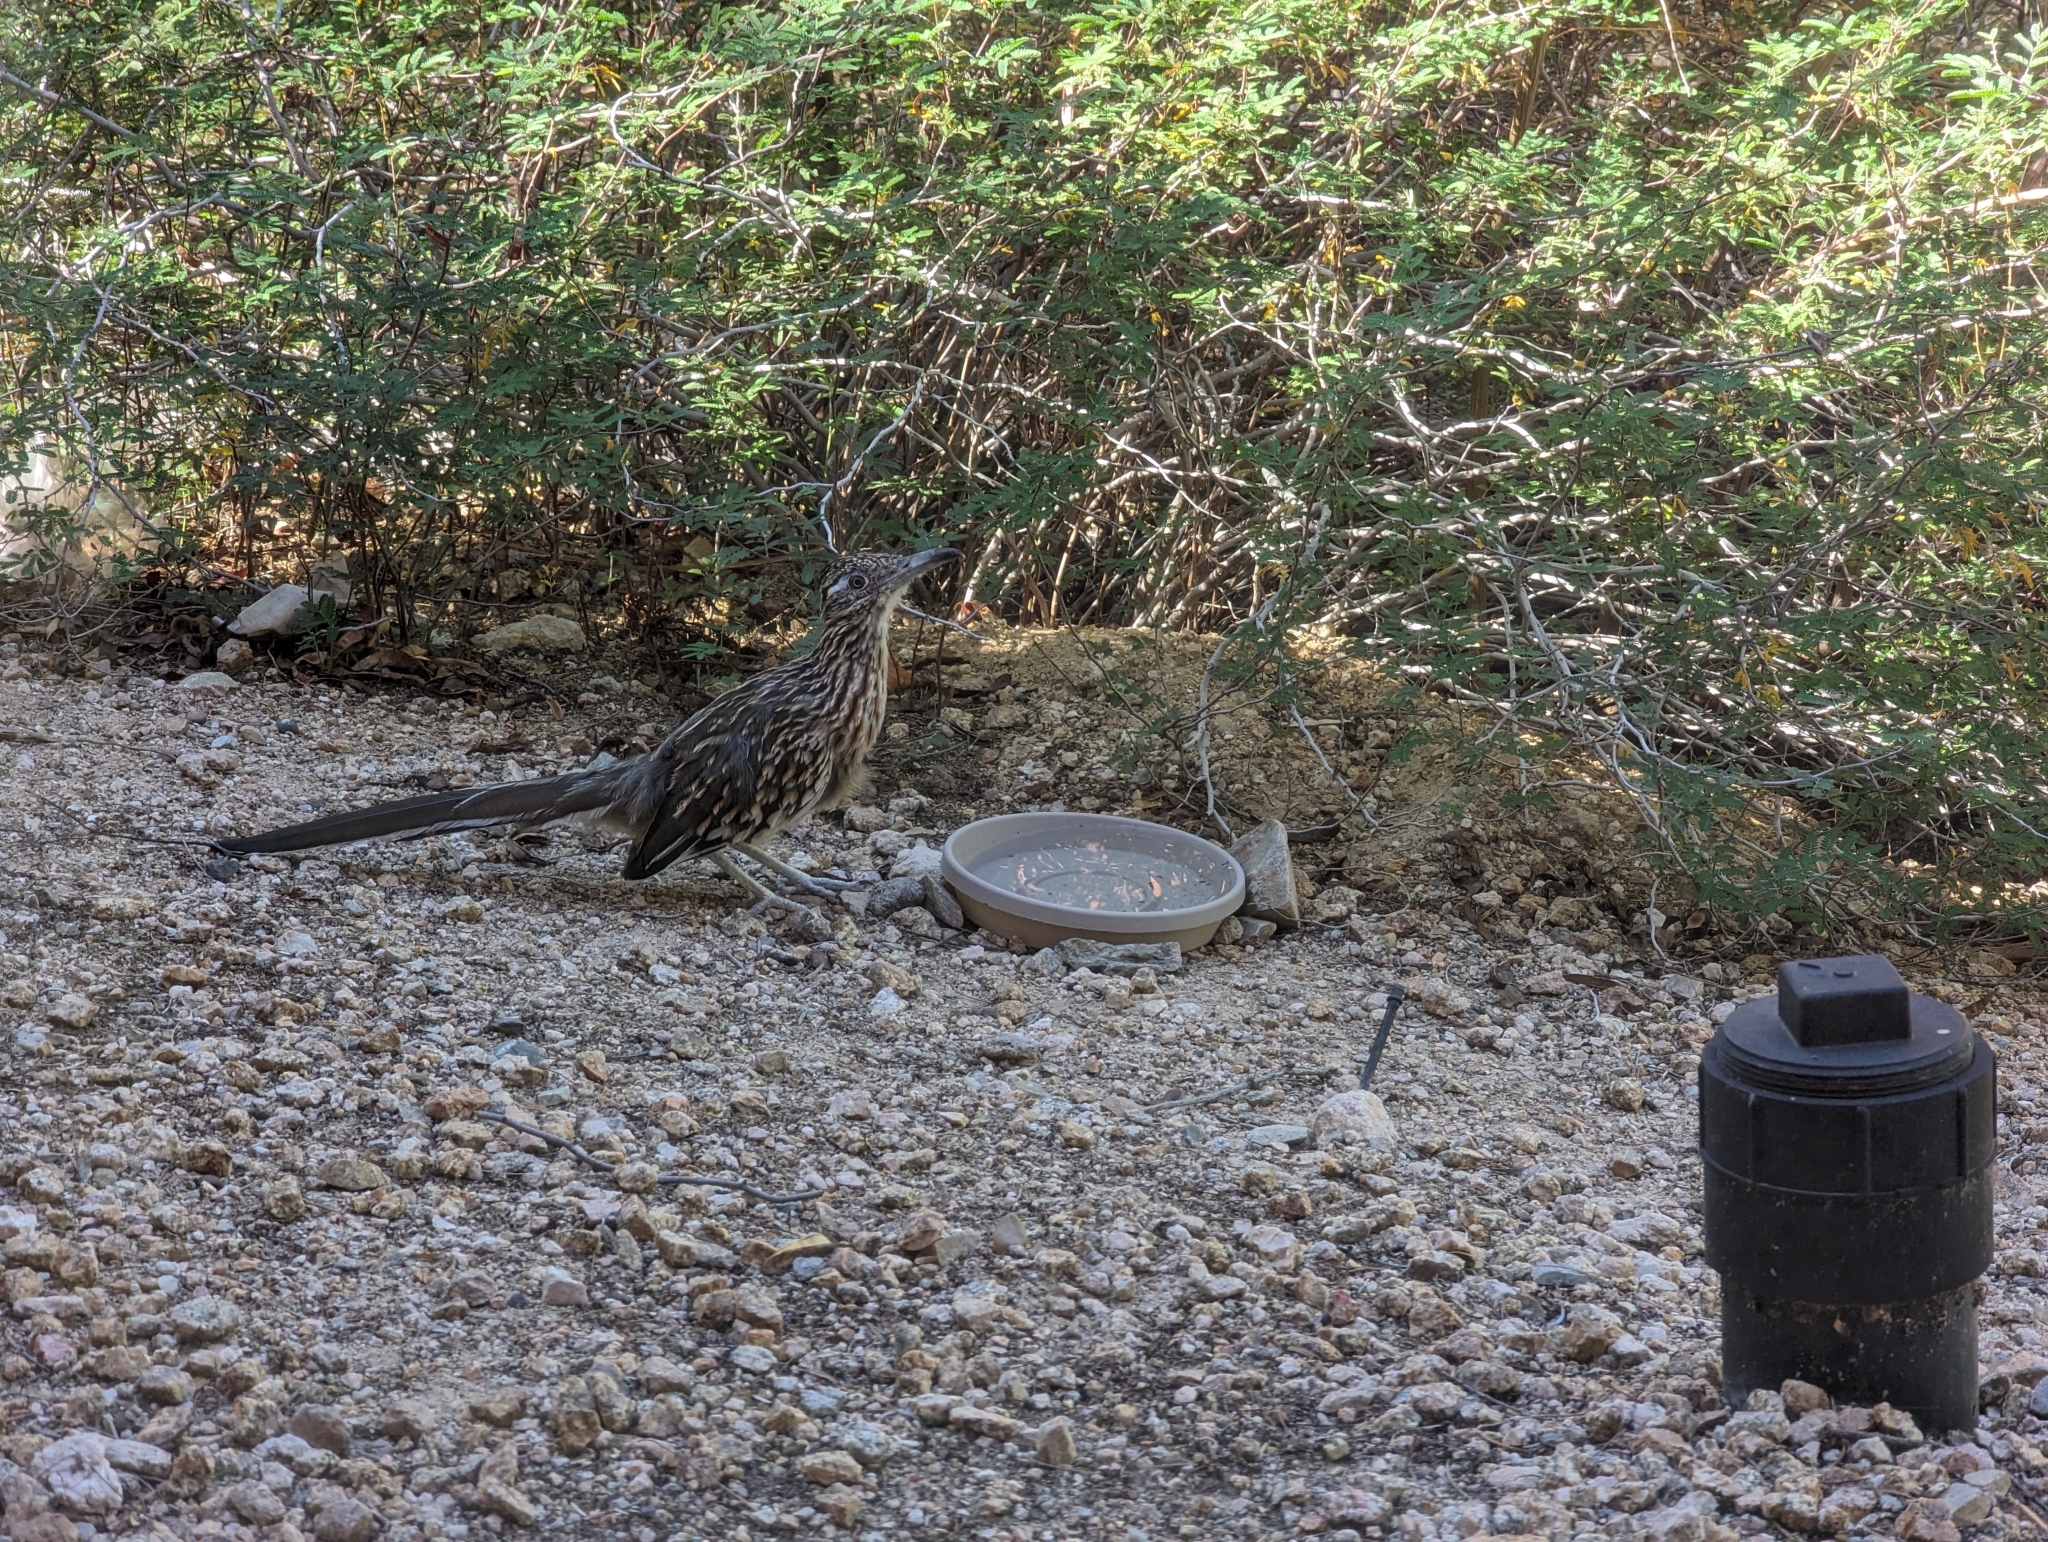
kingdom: Animalia
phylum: Chordata
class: Aves
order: Cuculiformes
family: Cuculidae
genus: Geococcyx
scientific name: Geococcyx californianus
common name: Greater roadrunner
